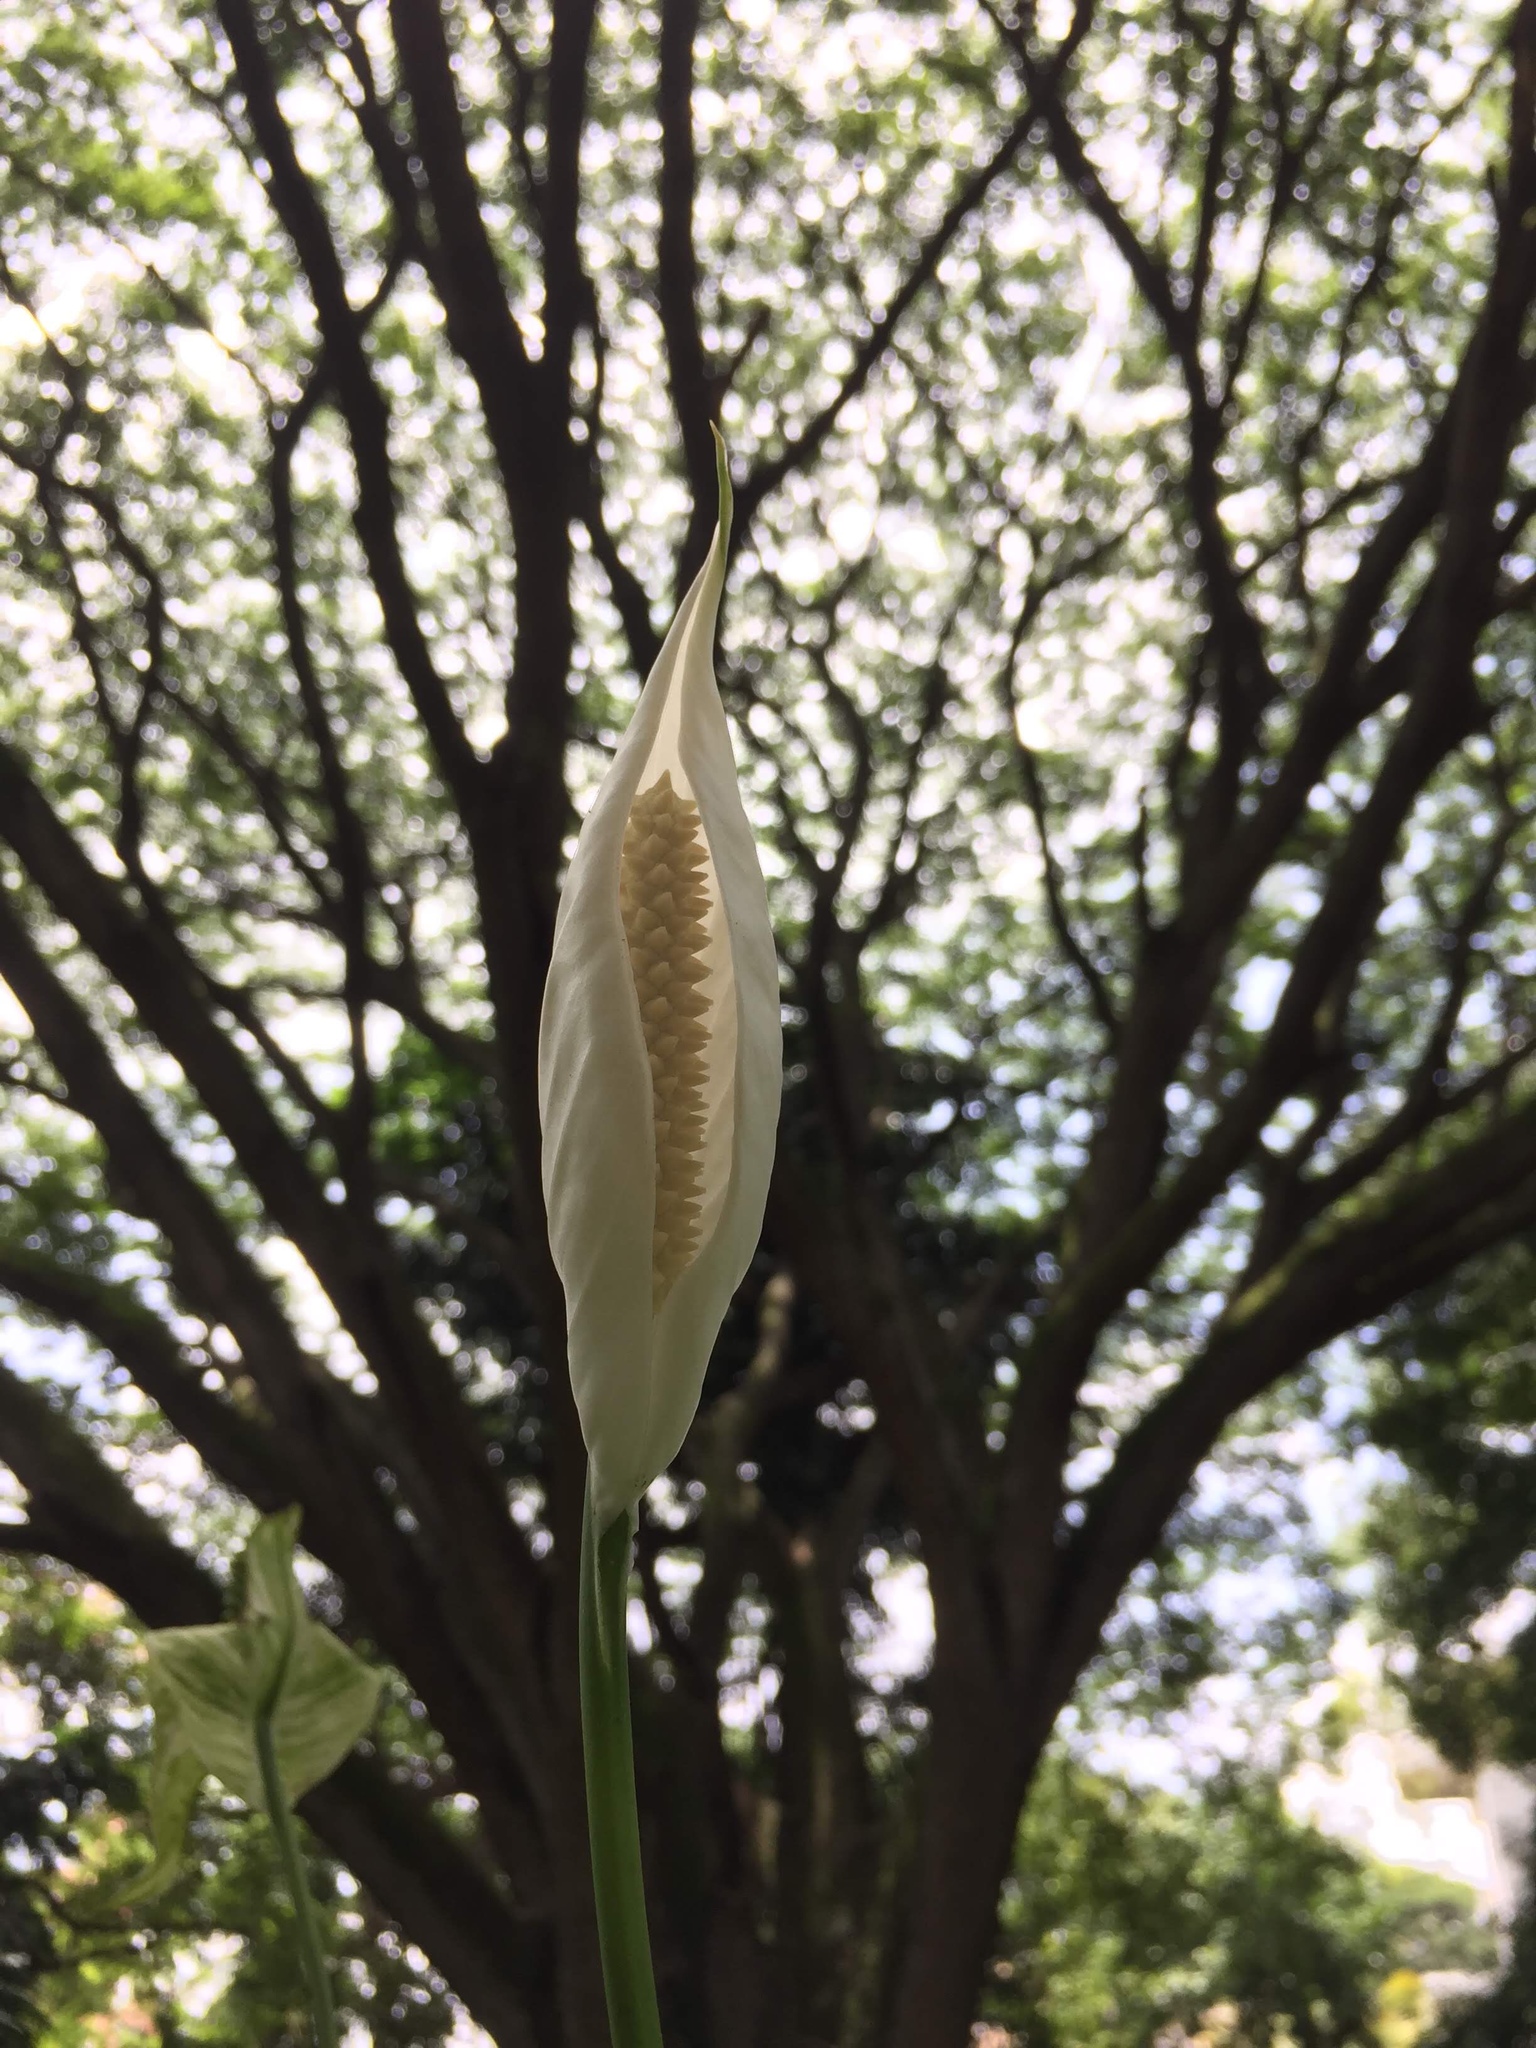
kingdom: Plantae
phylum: Tracheophyta
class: Liliopsida
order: Alismatales
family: Araceae
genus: Spathiphyllum
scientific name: Spathiphyllum wallisii
